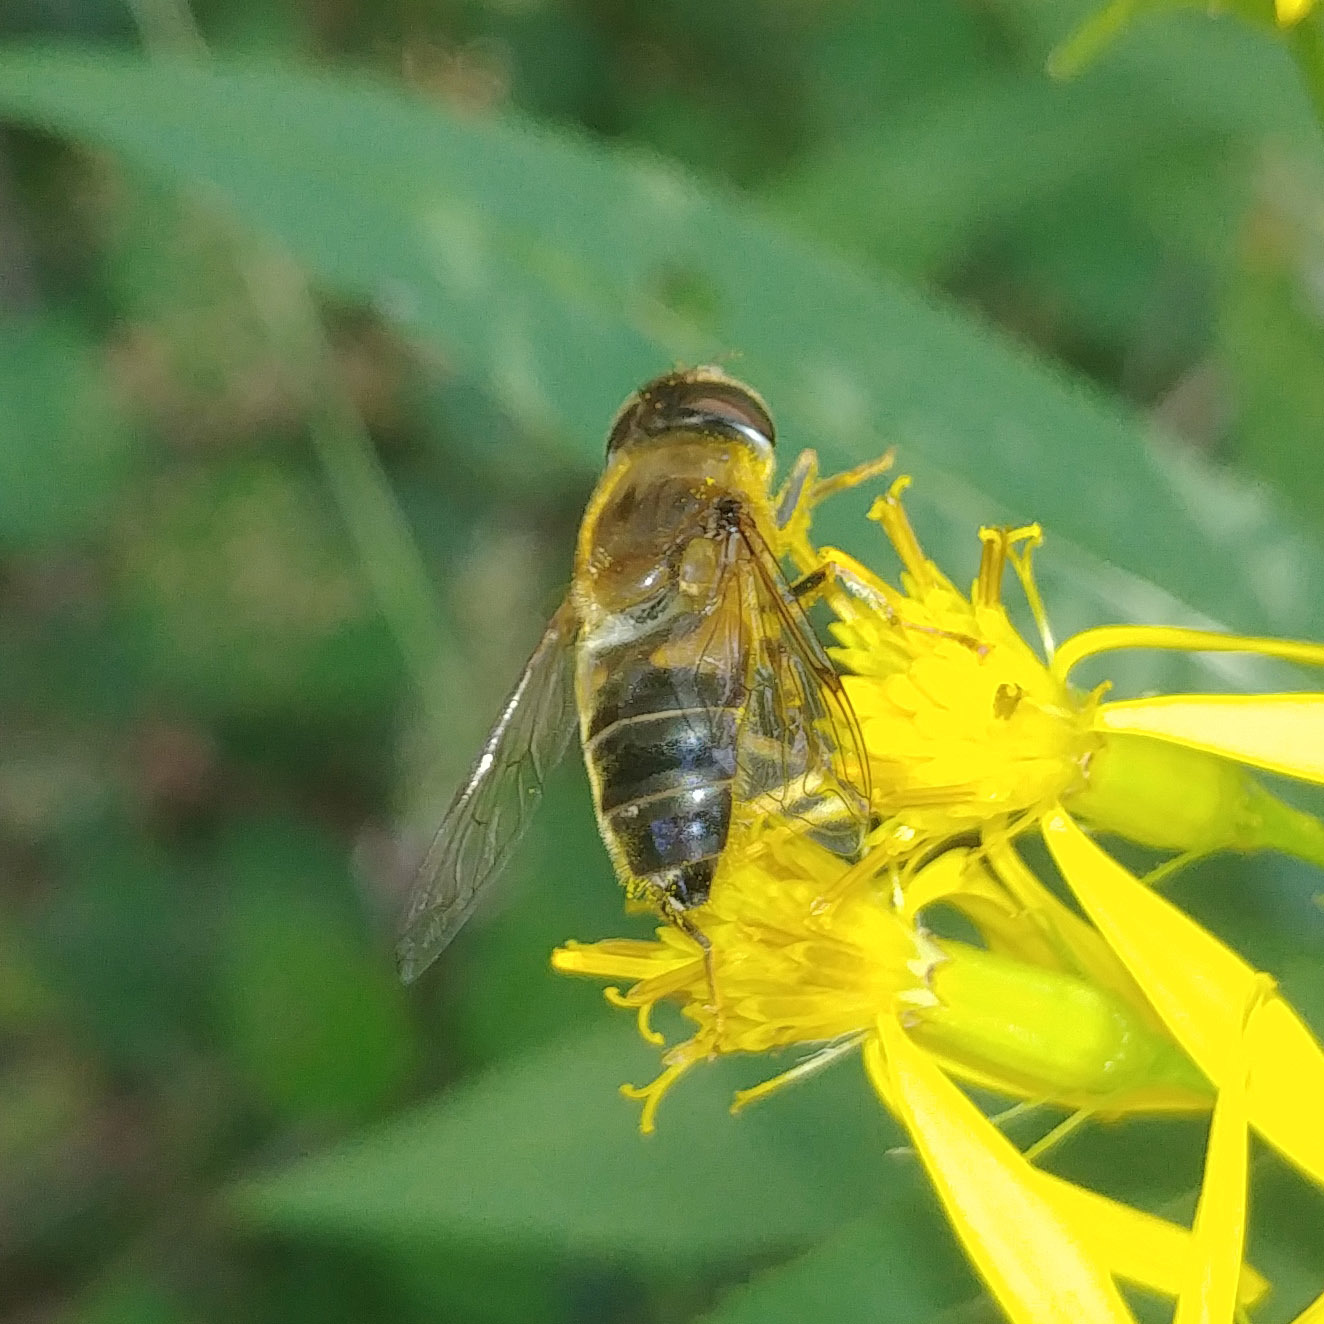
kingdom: Animalia
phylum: Arthropoda
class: Insecta
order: Diptera
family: Syrphidae
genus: Eristalis
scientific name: Eristalis pertinax
